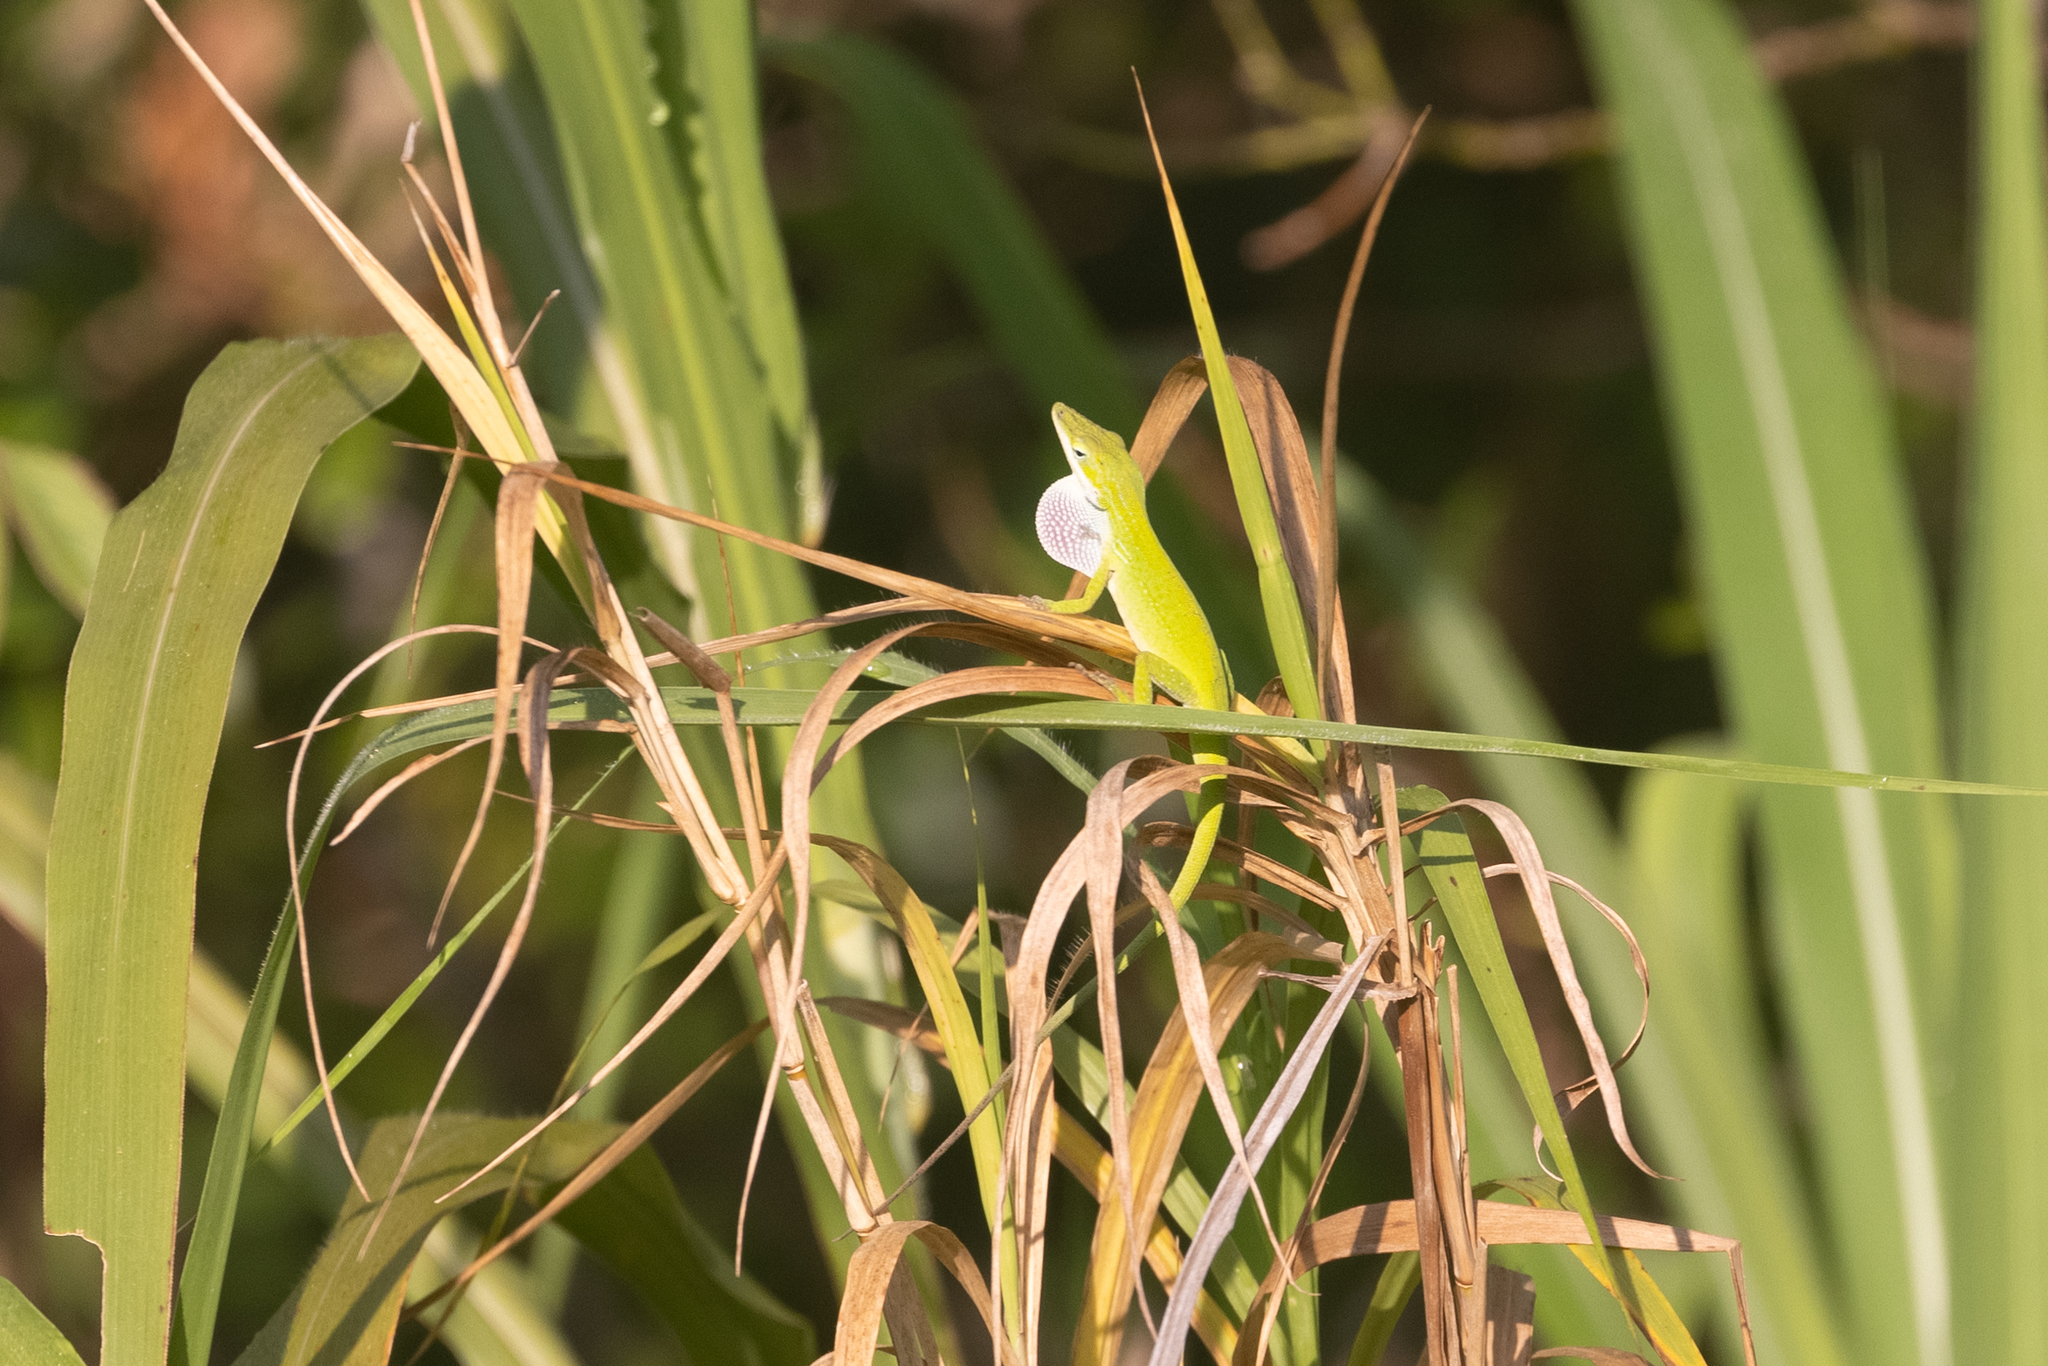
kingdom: Animalia
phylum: Chordata
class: Squamata
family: Dactyloidae
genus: Anolis
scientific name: Anolis carolinensis
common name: Green anole
